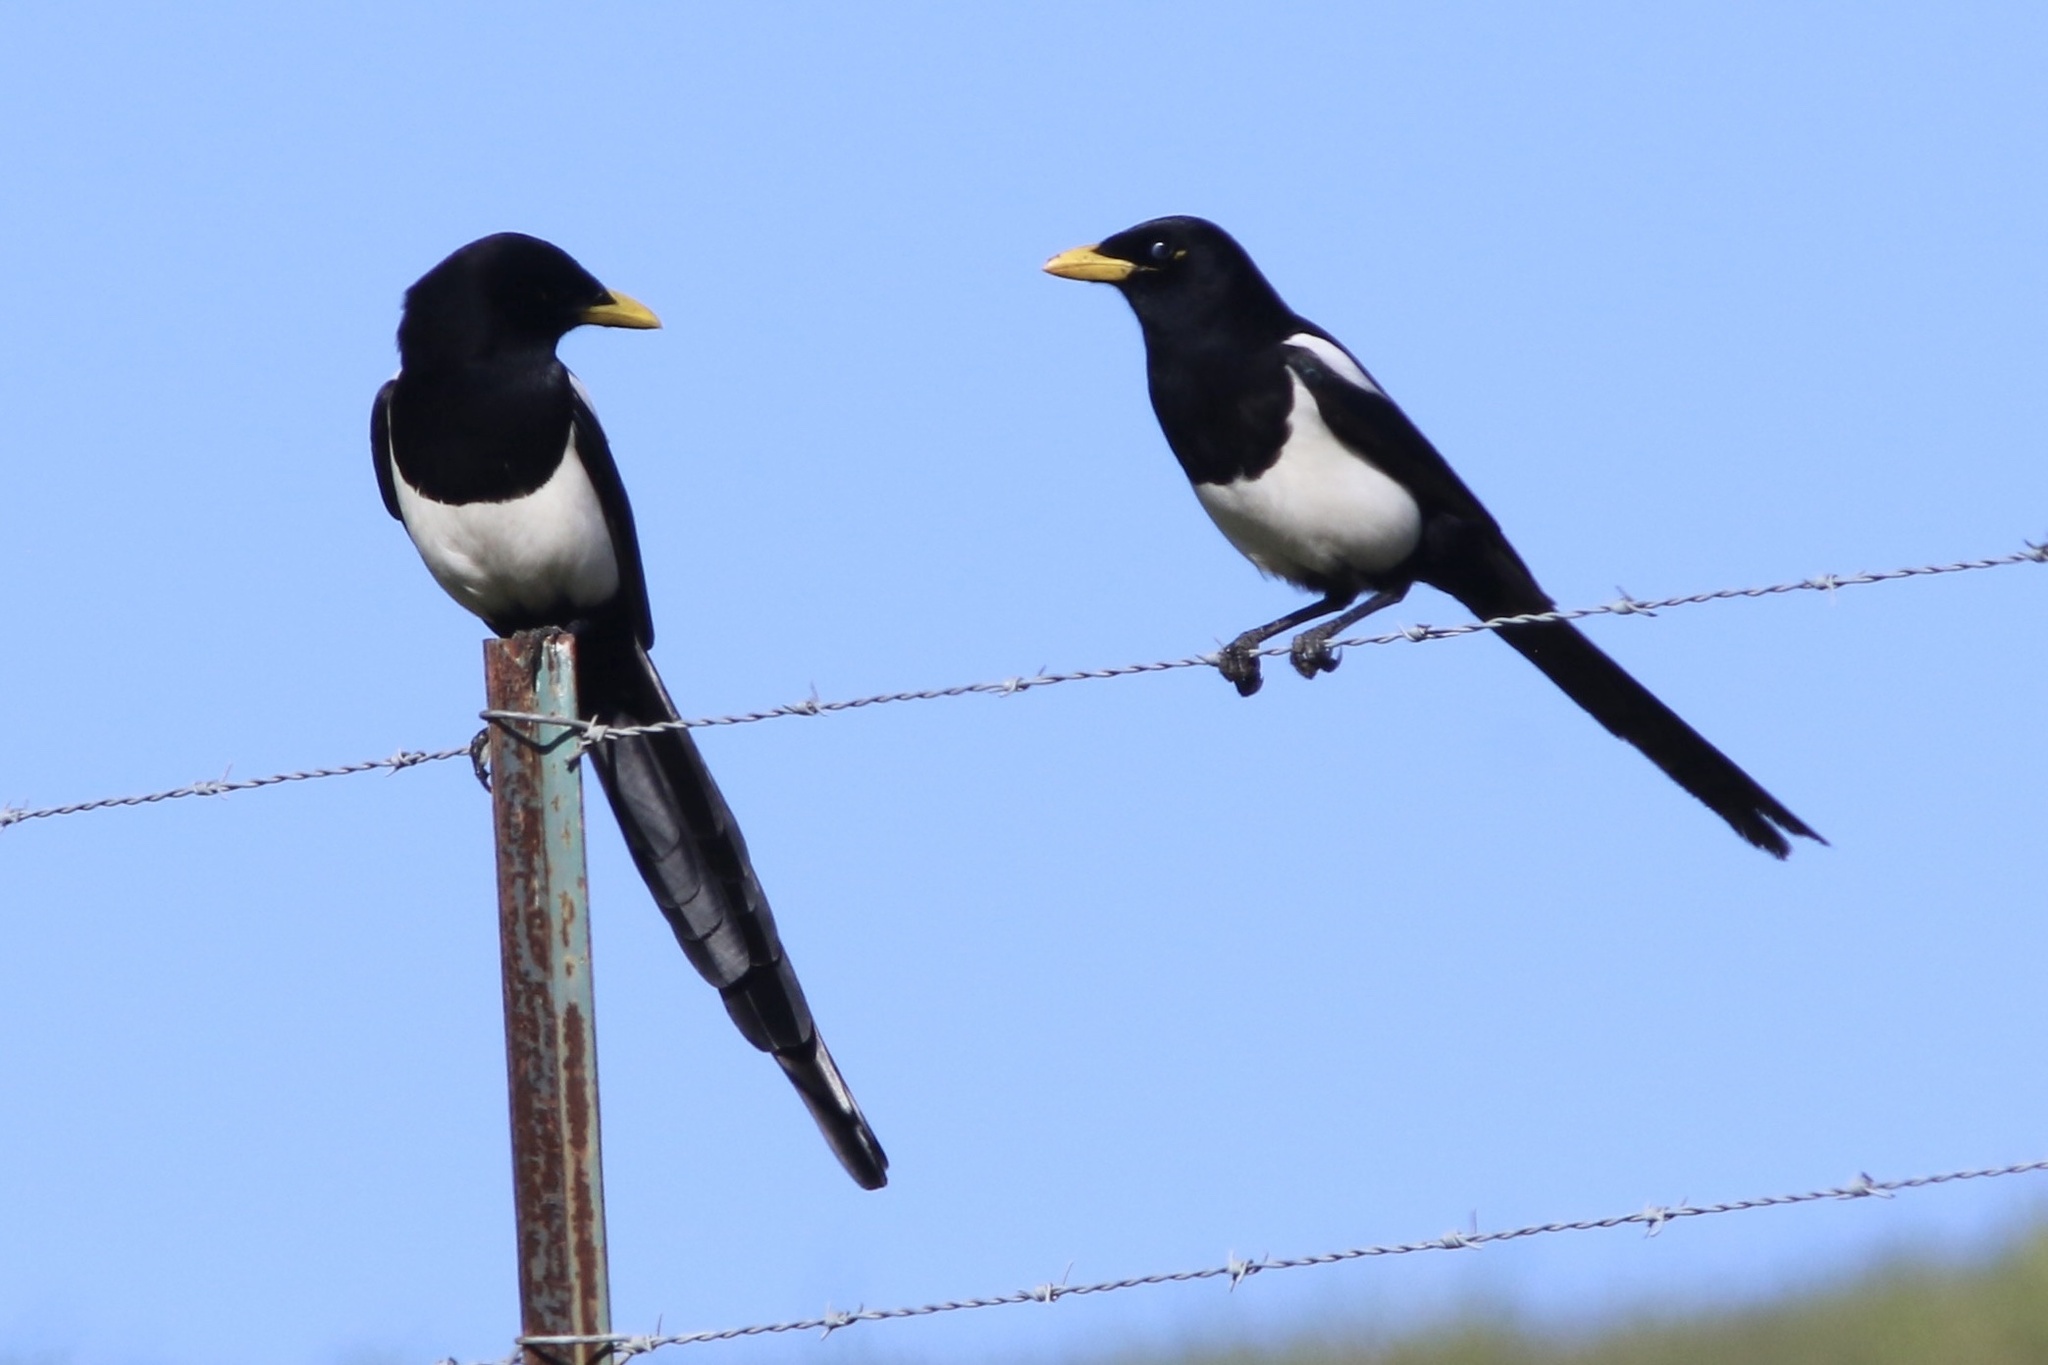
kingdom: Animalia
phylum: Chordata
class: Aves
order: Passeriformes
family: Corvidae
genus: Pica
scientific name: Pica nuttalli
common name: Yellow-billed magpie
